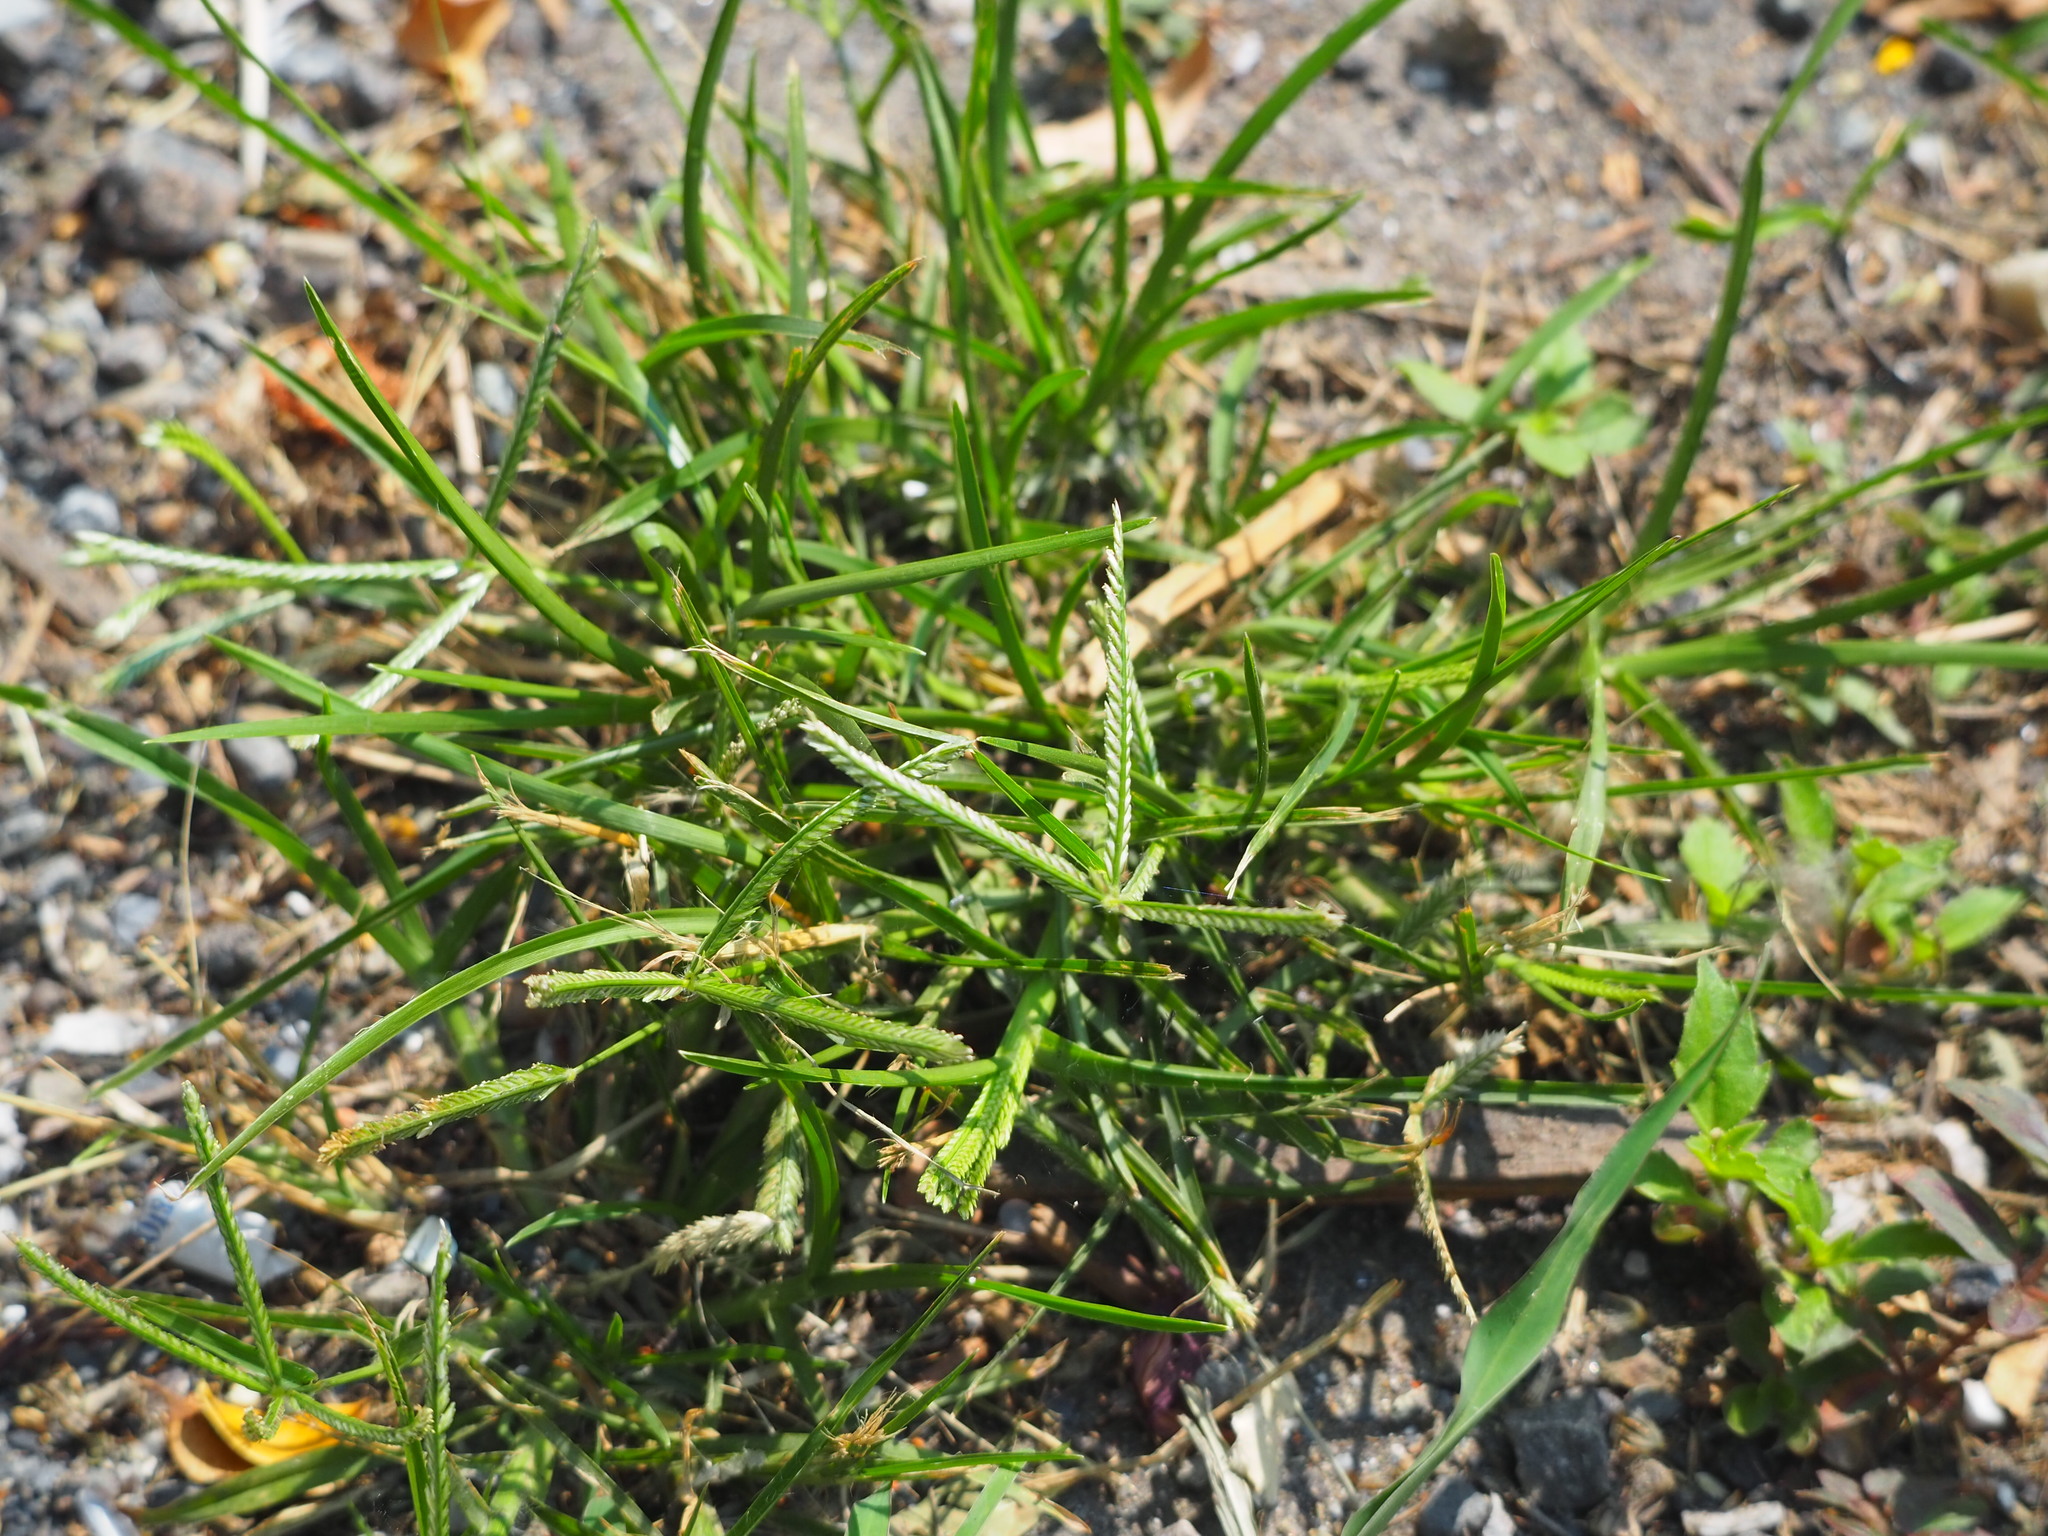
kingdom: Plantae
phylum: Tracheophyta
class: Liliopsida
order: Poales
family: Poaceae
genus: Eleusine
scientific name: Eleusine indica
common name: Yard-grass
